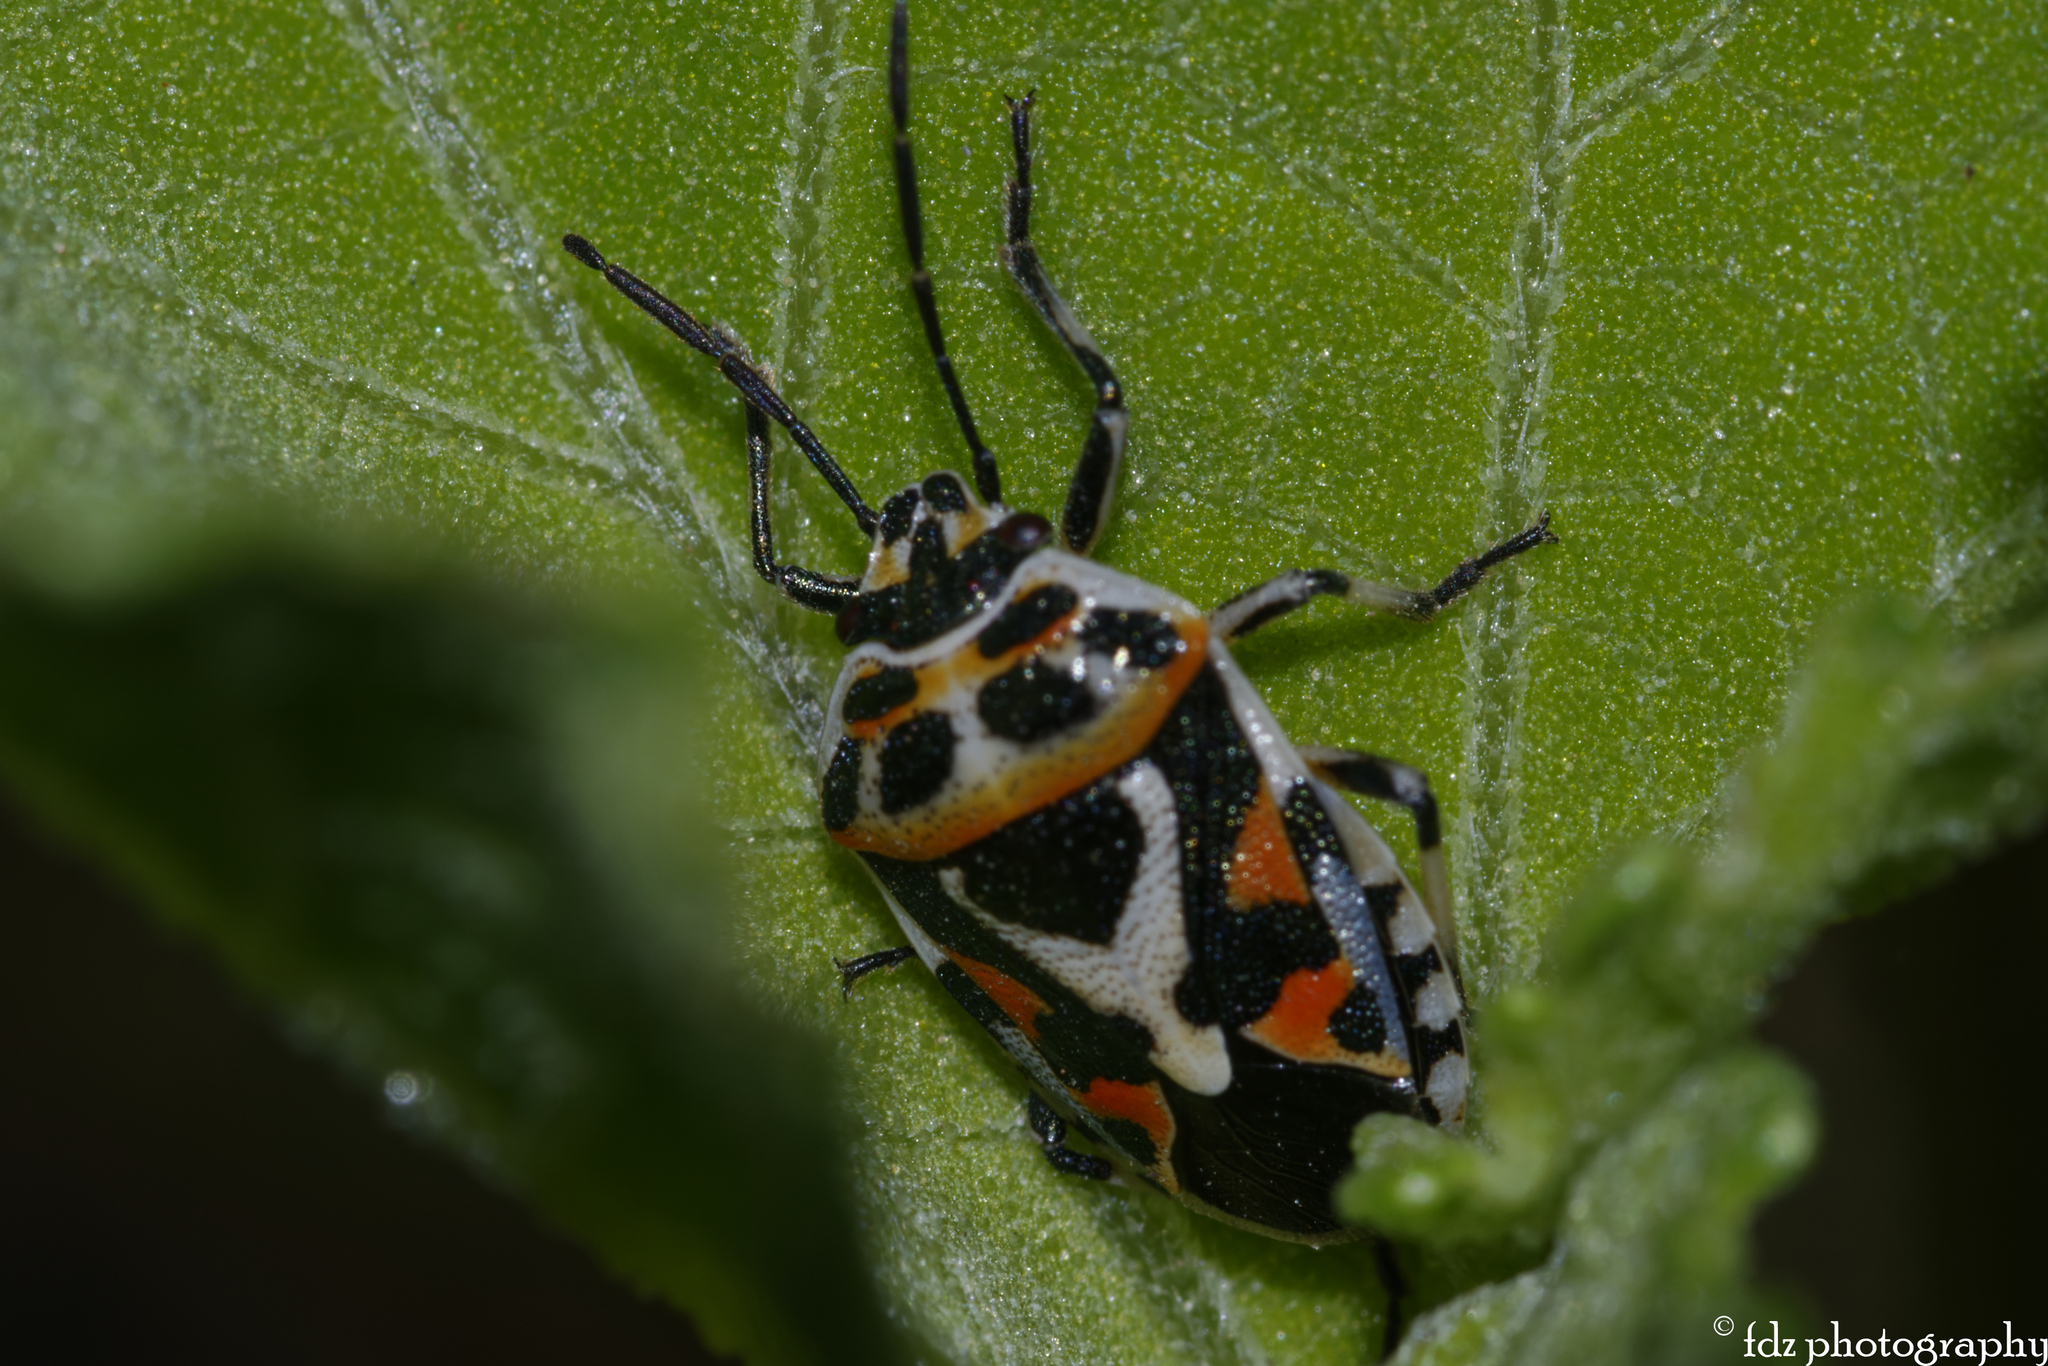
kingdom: Animalia
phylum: Arthropoda
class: Insecta
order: Hemiptera
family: Pentatomidae
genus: Eurydema
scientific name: Eurydema ornata
